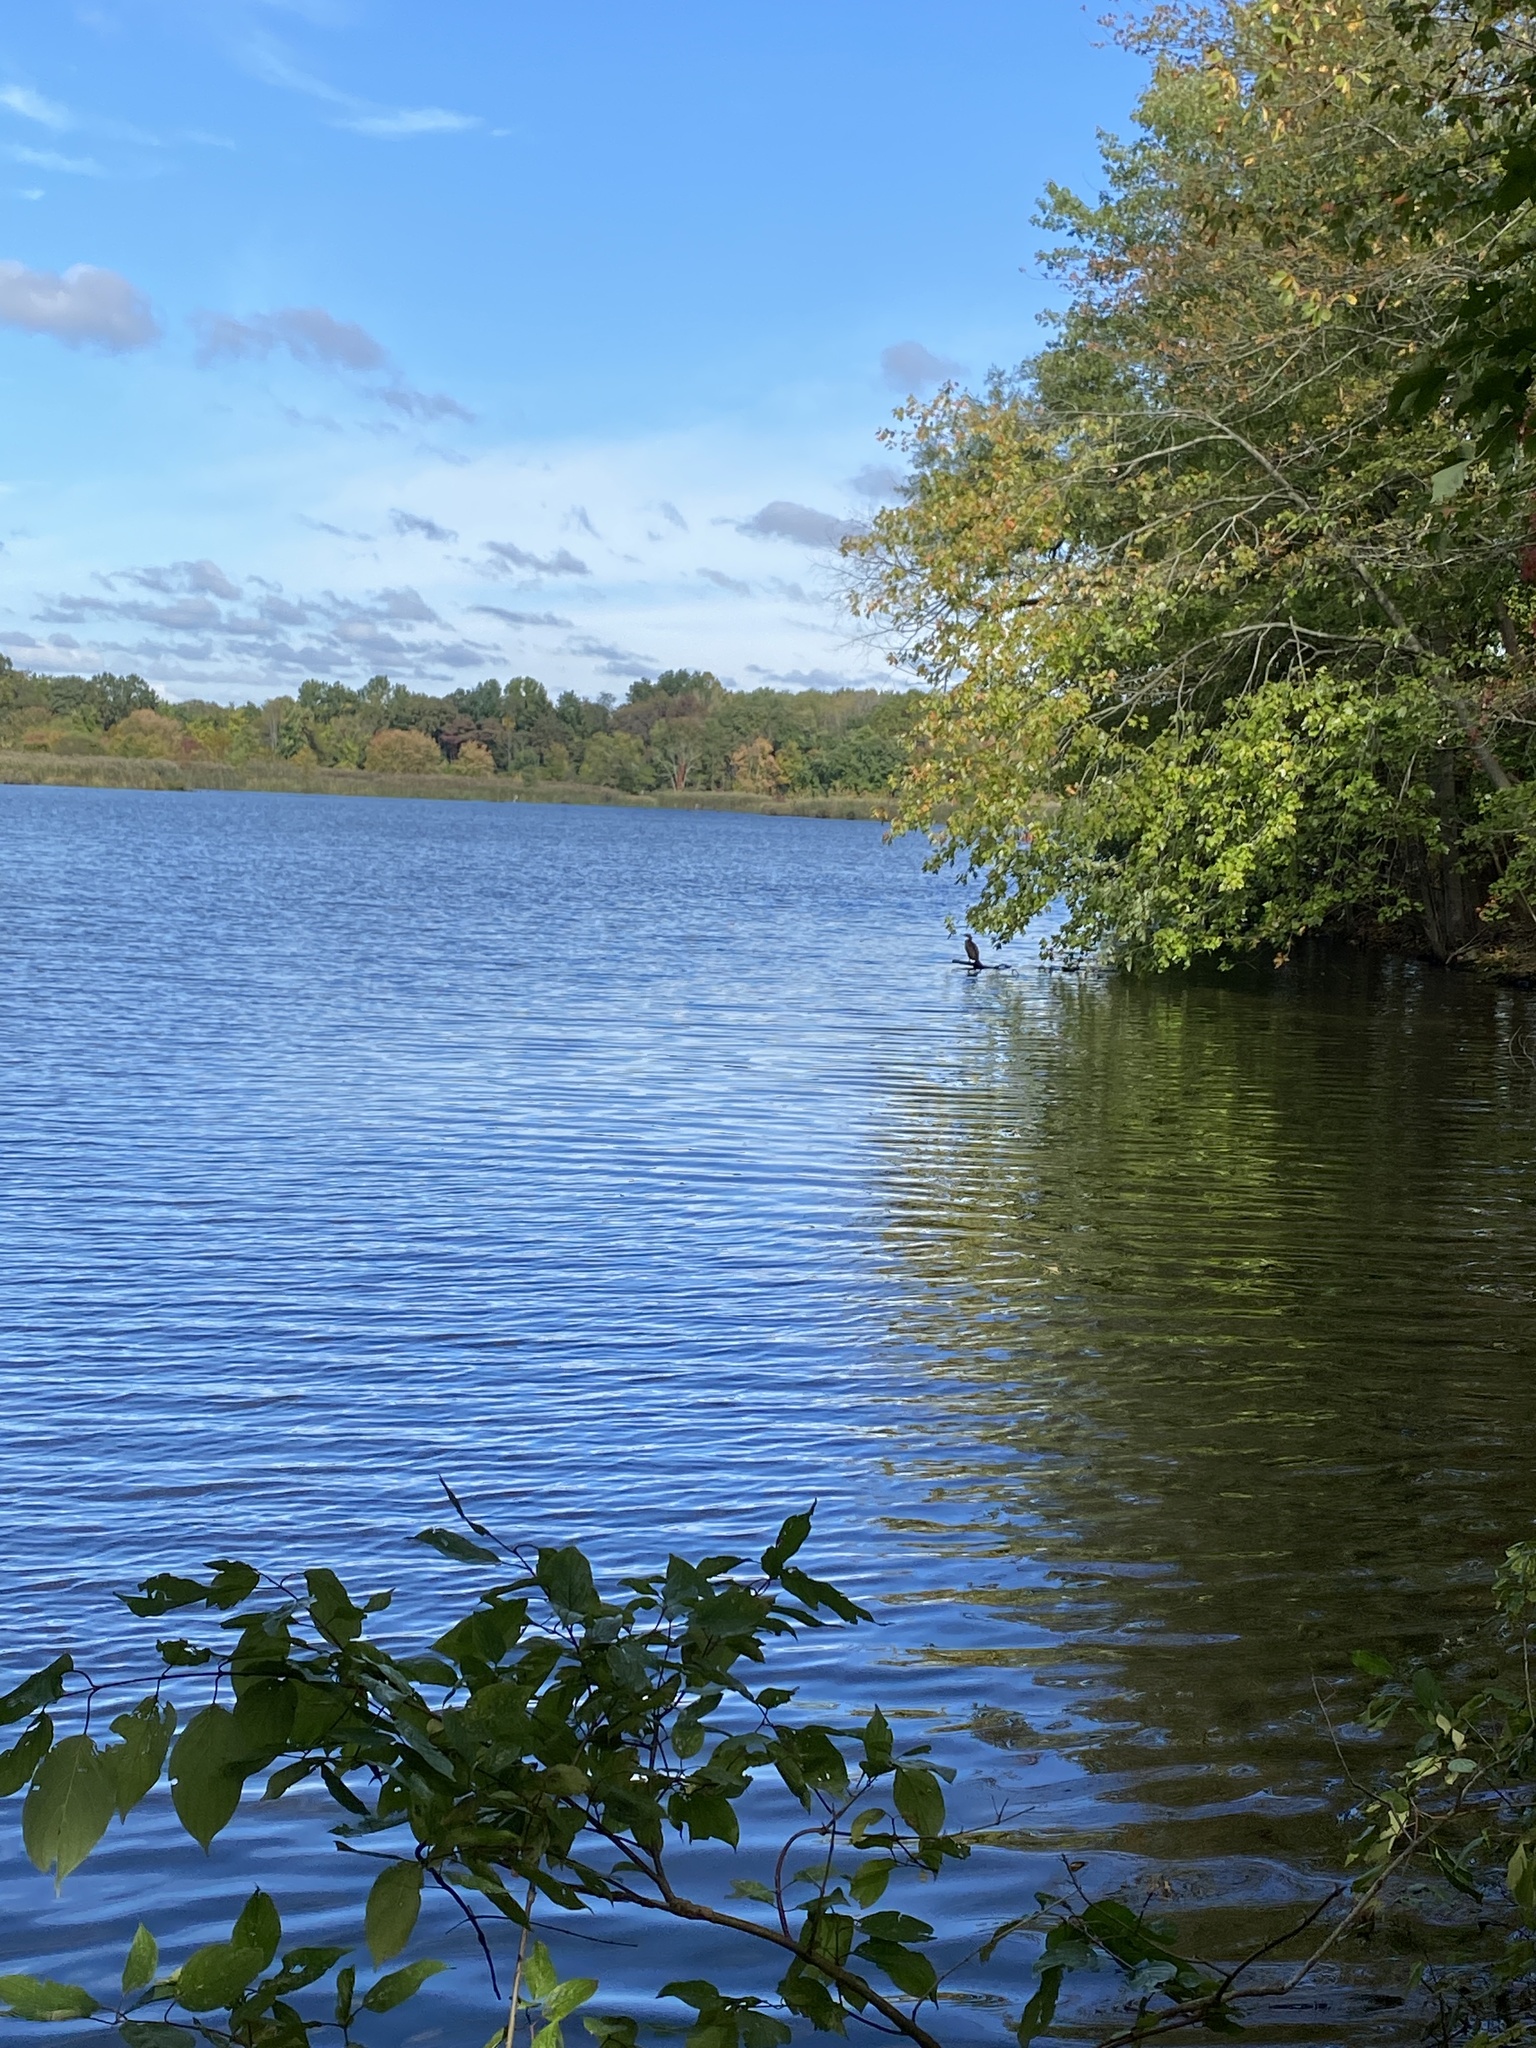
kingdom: Animalia
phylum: Chordata
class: Aves
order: Suliformes
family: Phalacrocoracidae
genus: Phalacrocorax
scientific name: Phalacrocorax auritus
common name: Double-crested cormorant
